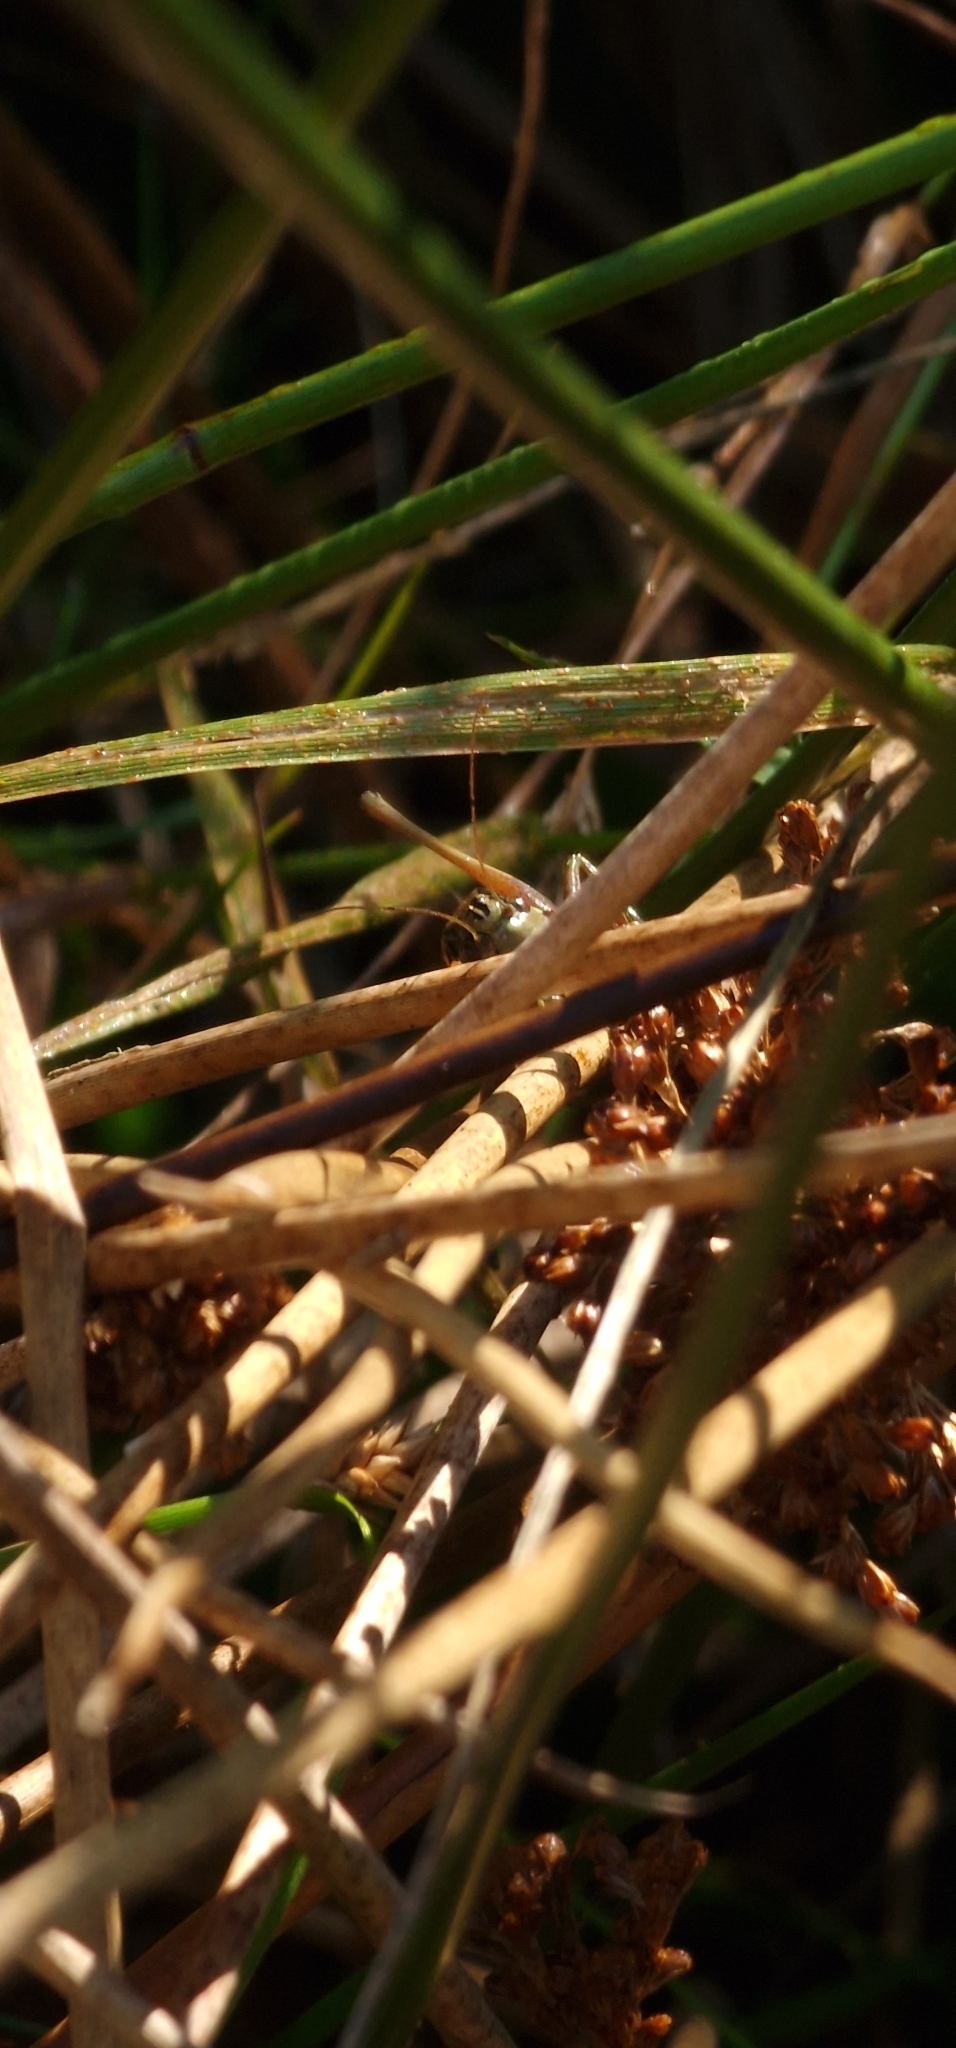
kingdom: Animalia
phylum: Arthropoda
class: Insecta
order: Orthoptera
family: Tettigoniidae
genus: Roeseliana
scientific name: Roeseliana roeselii
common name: Roesel's bush cricket
